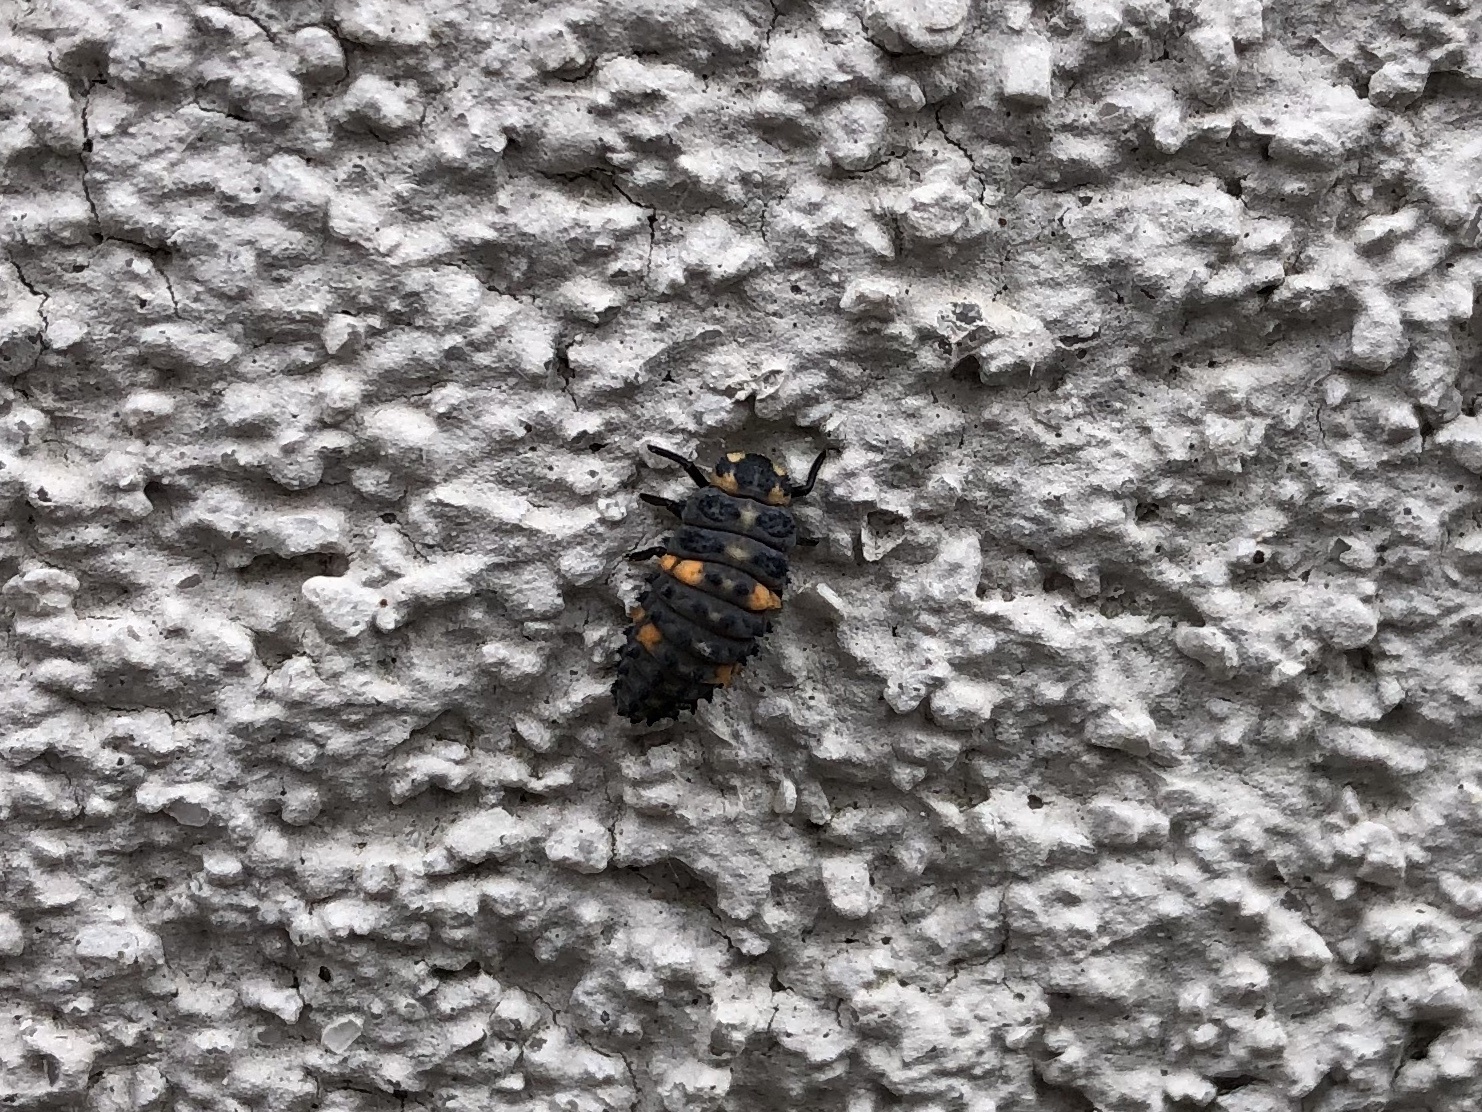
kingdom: Animalia
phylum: Arthropoda
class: Insecta
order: Coleoptera
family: Coccinellidae
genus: Coccinella
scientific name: Coccinella septempunctata
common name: Sevenspotted lady beetle
